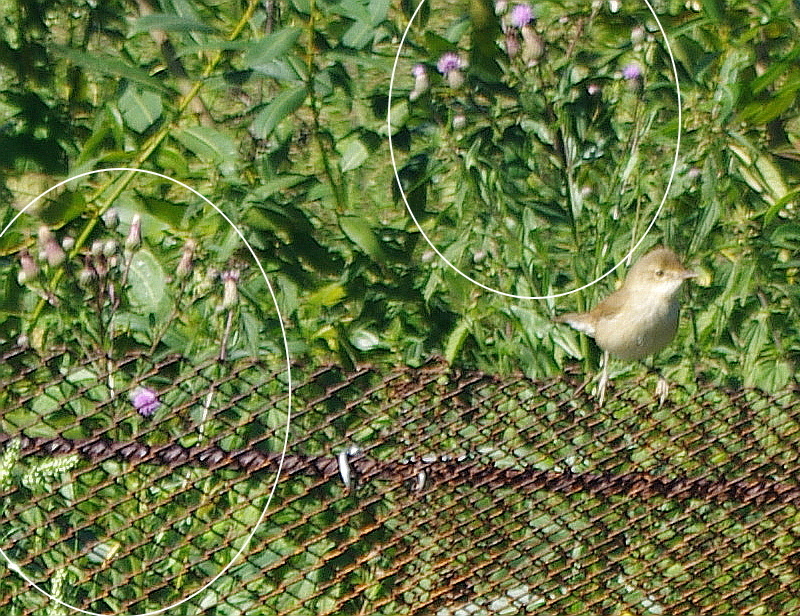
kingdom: Plantae
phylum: Tracheophyta
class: Magnoliopsida
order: Asterales
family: Asteraceae
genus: Cirsium
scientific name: Cirsium arvense
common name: Creeping thistle
